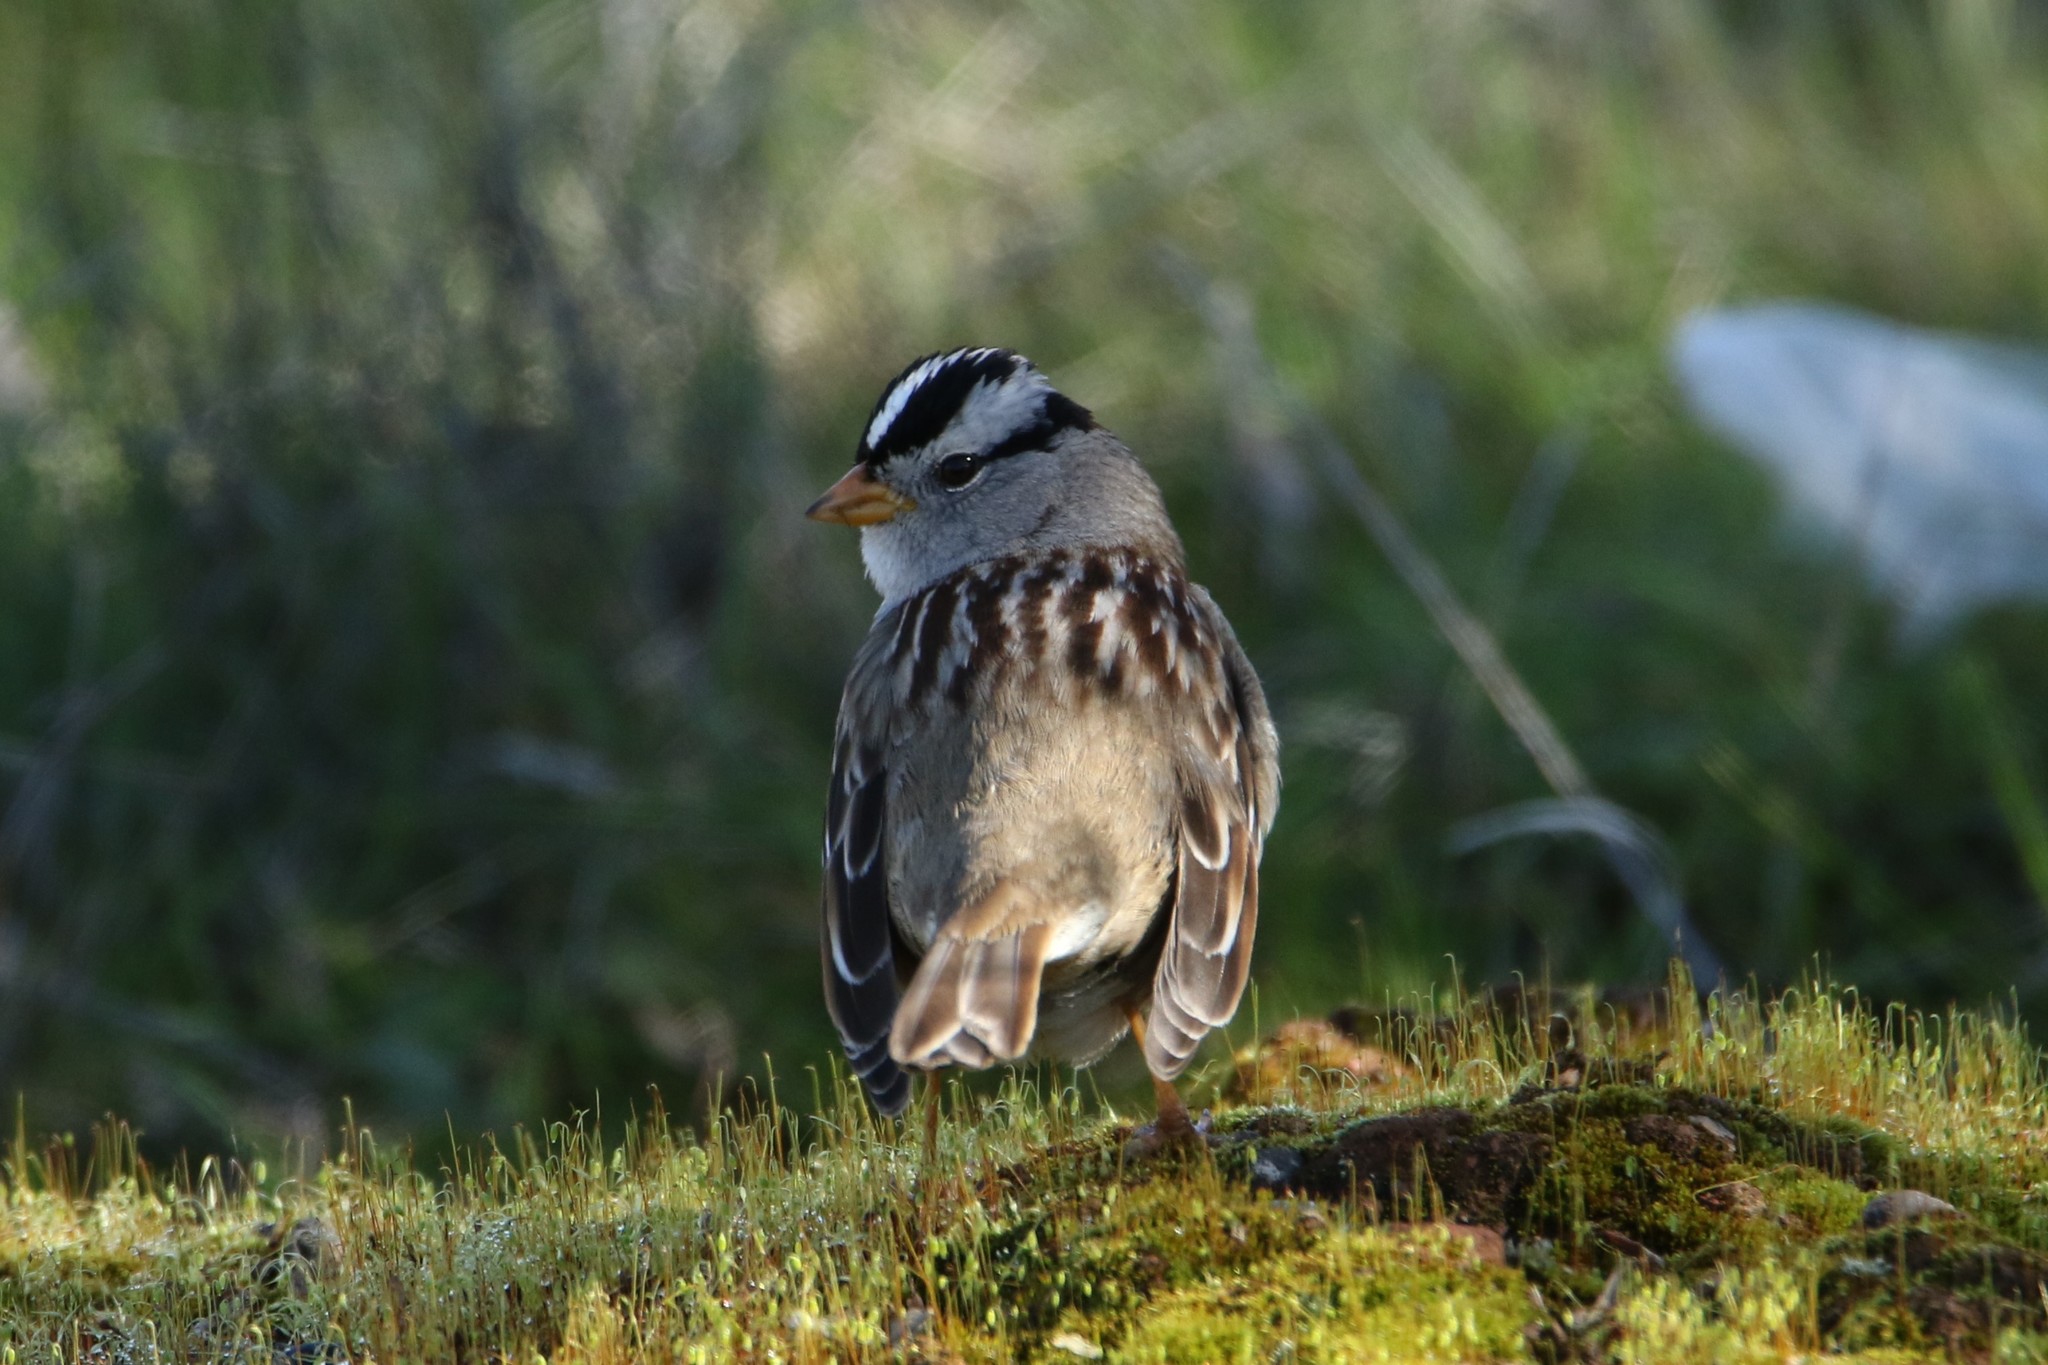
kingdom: Animalia
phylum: Chordata
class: Aves
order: Passeriformes
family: Passerellidae
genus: Zonotrichia
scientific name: Zonotrichia leucophrys
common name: White-crowned sparrow
